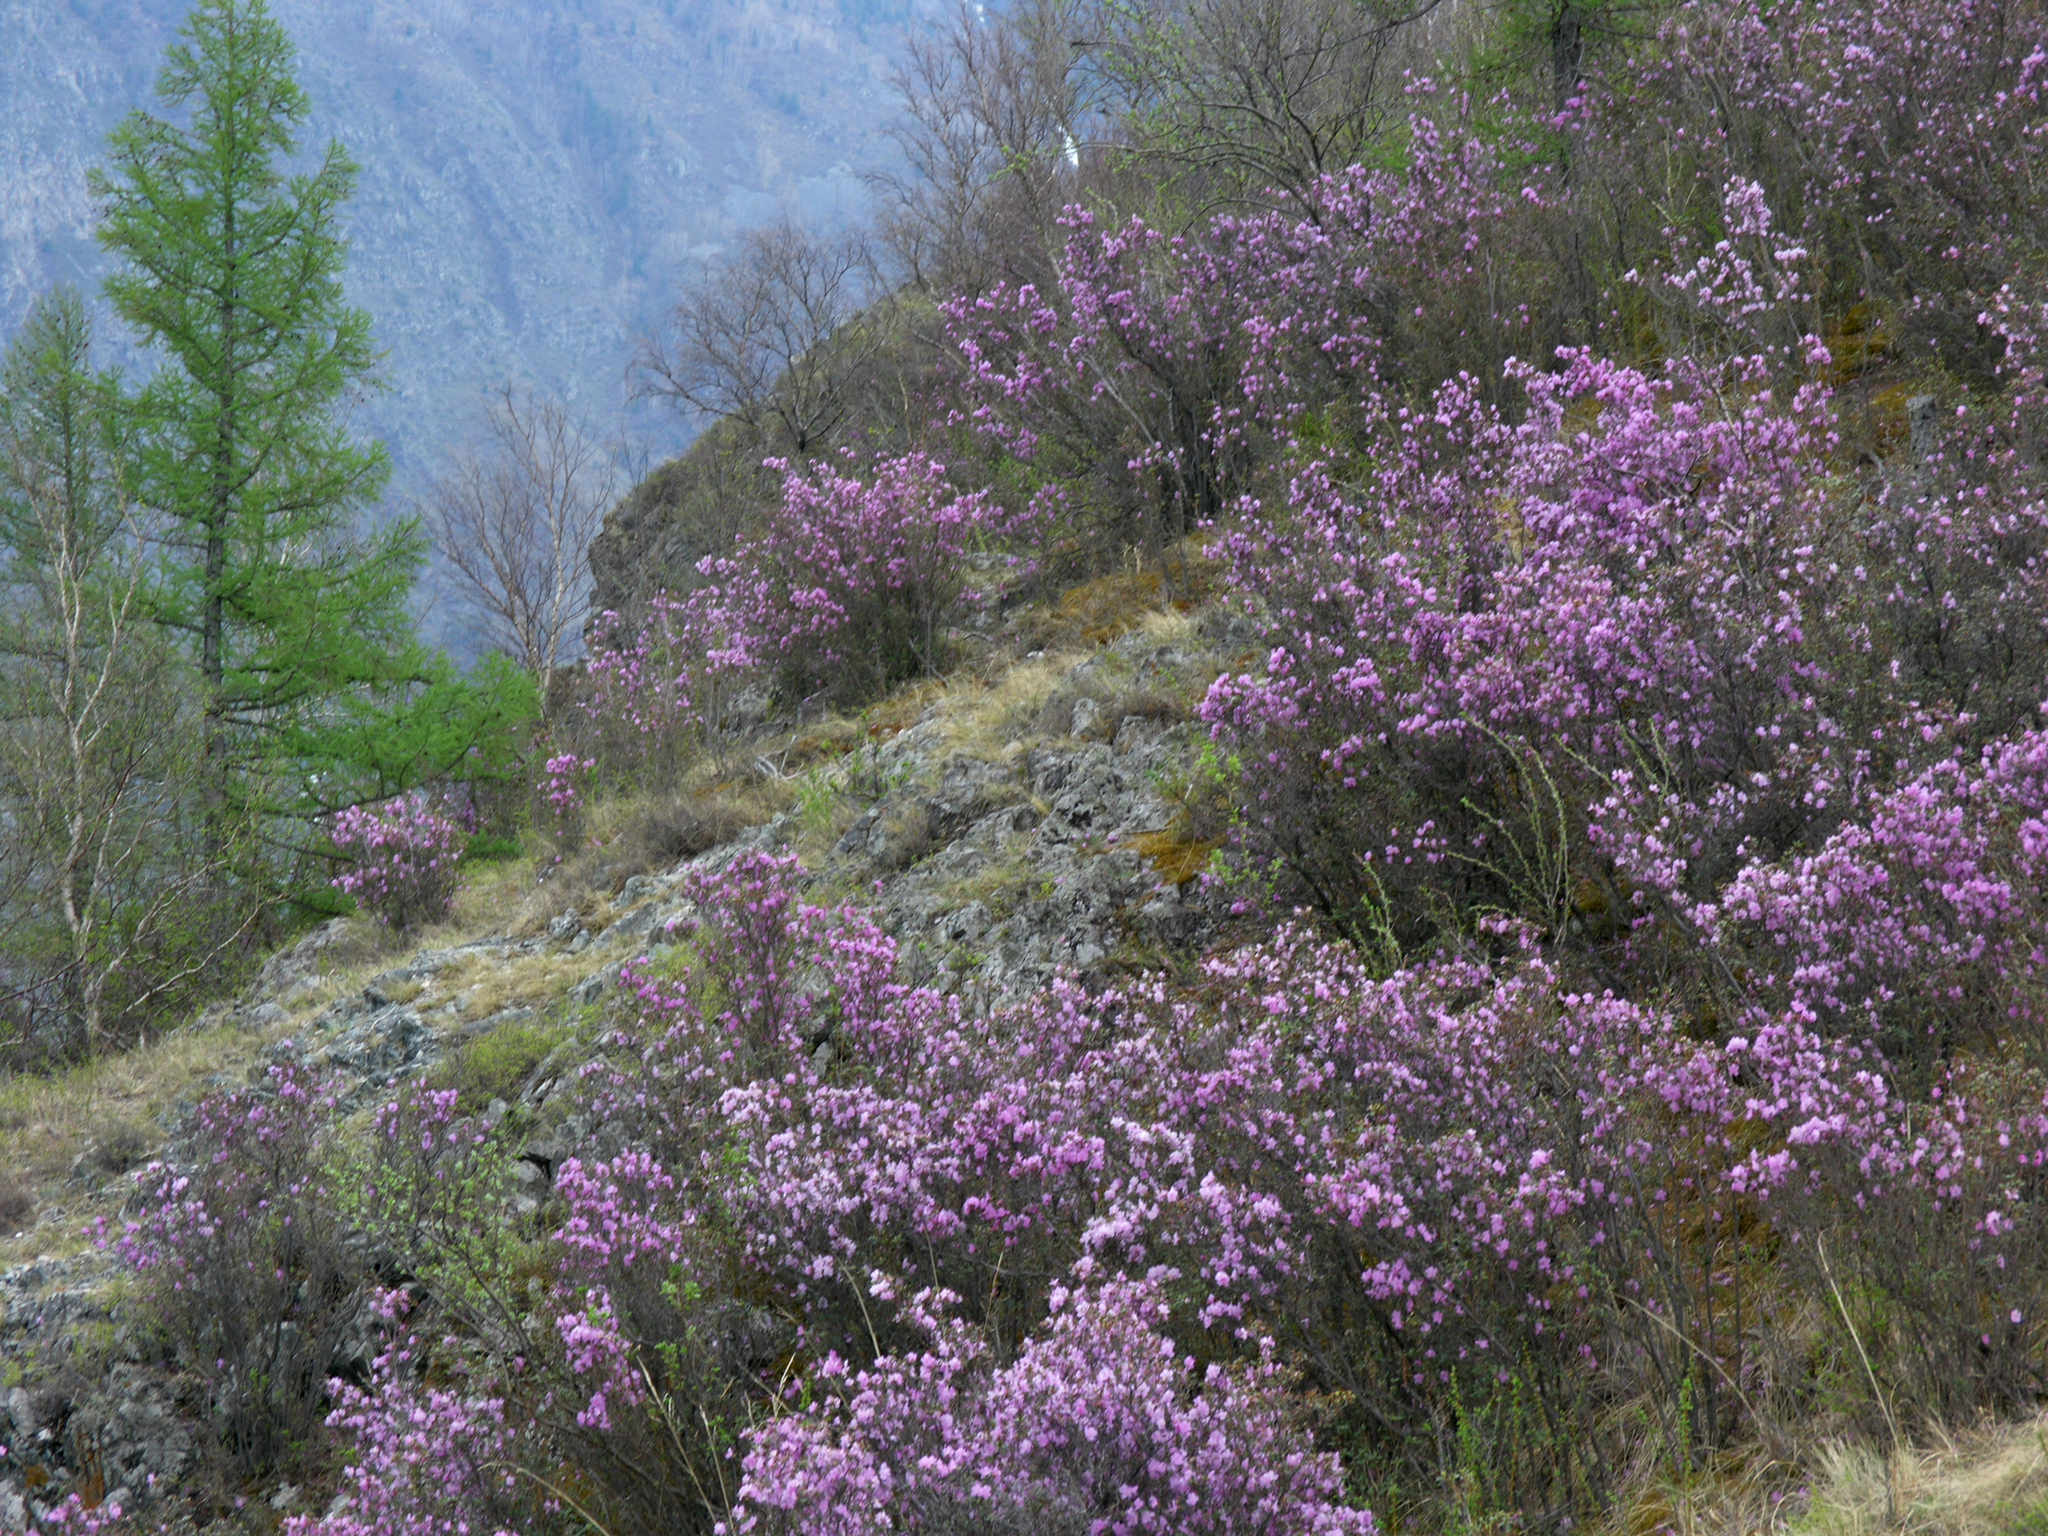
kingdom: Plantae
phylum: Tracheophyta
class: Magnoliopsida
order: Ericales
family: Ericaceae
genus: Rhododendron
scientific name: Rhododendron dauricum
